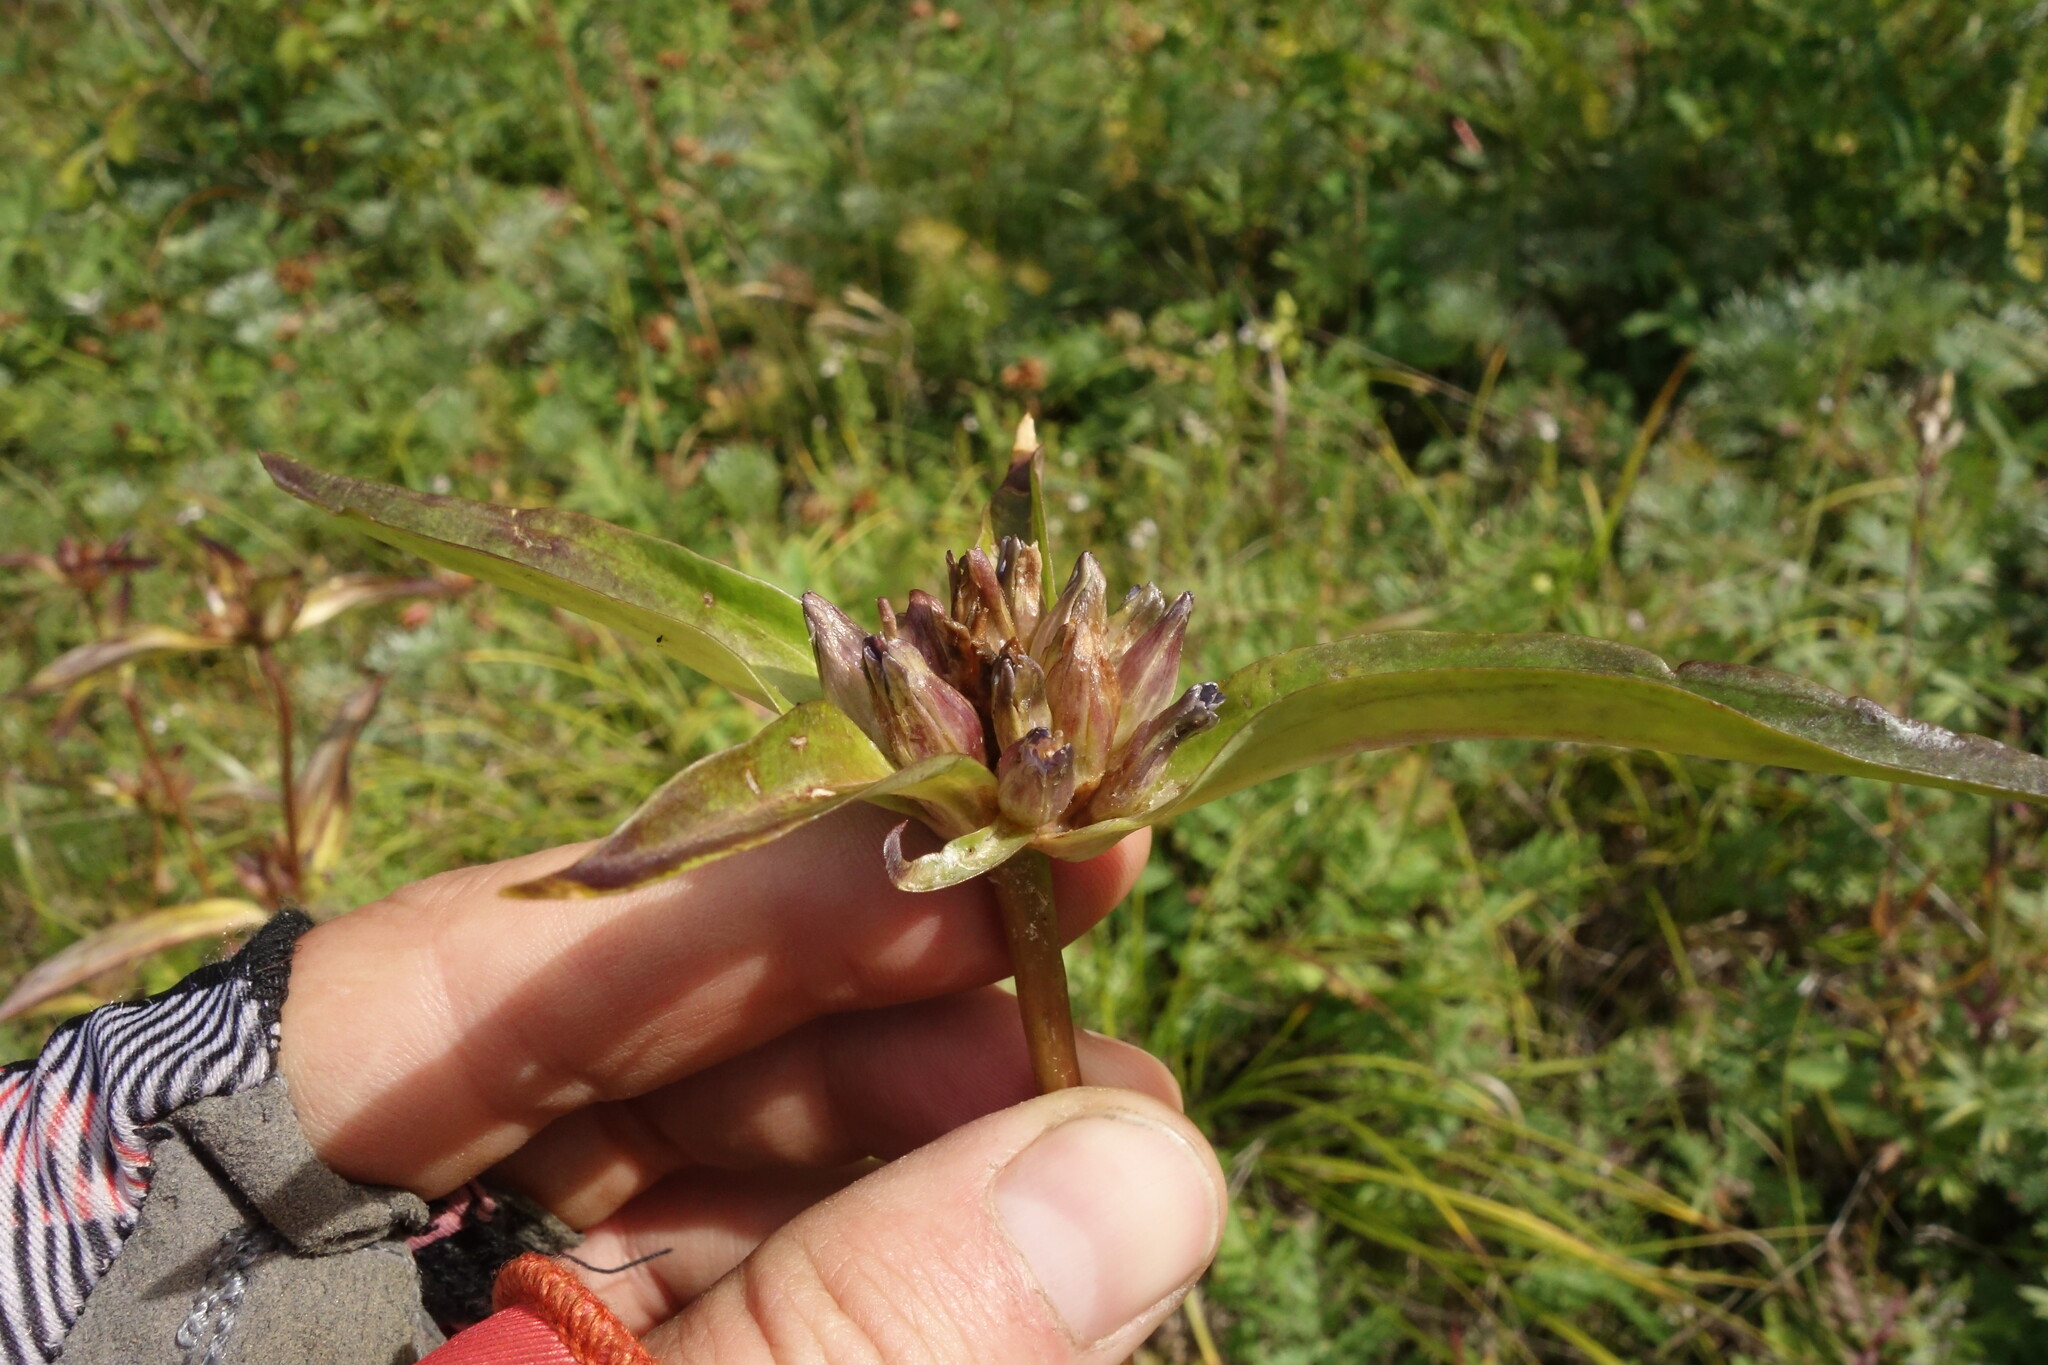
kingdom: Plantae
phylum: Tracheophyta
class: Magnoliopsida
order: Gentianales
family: Gentianaceae
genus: Gentiana
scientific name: Gentiana macrophylla
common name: Large-leaf gentian
